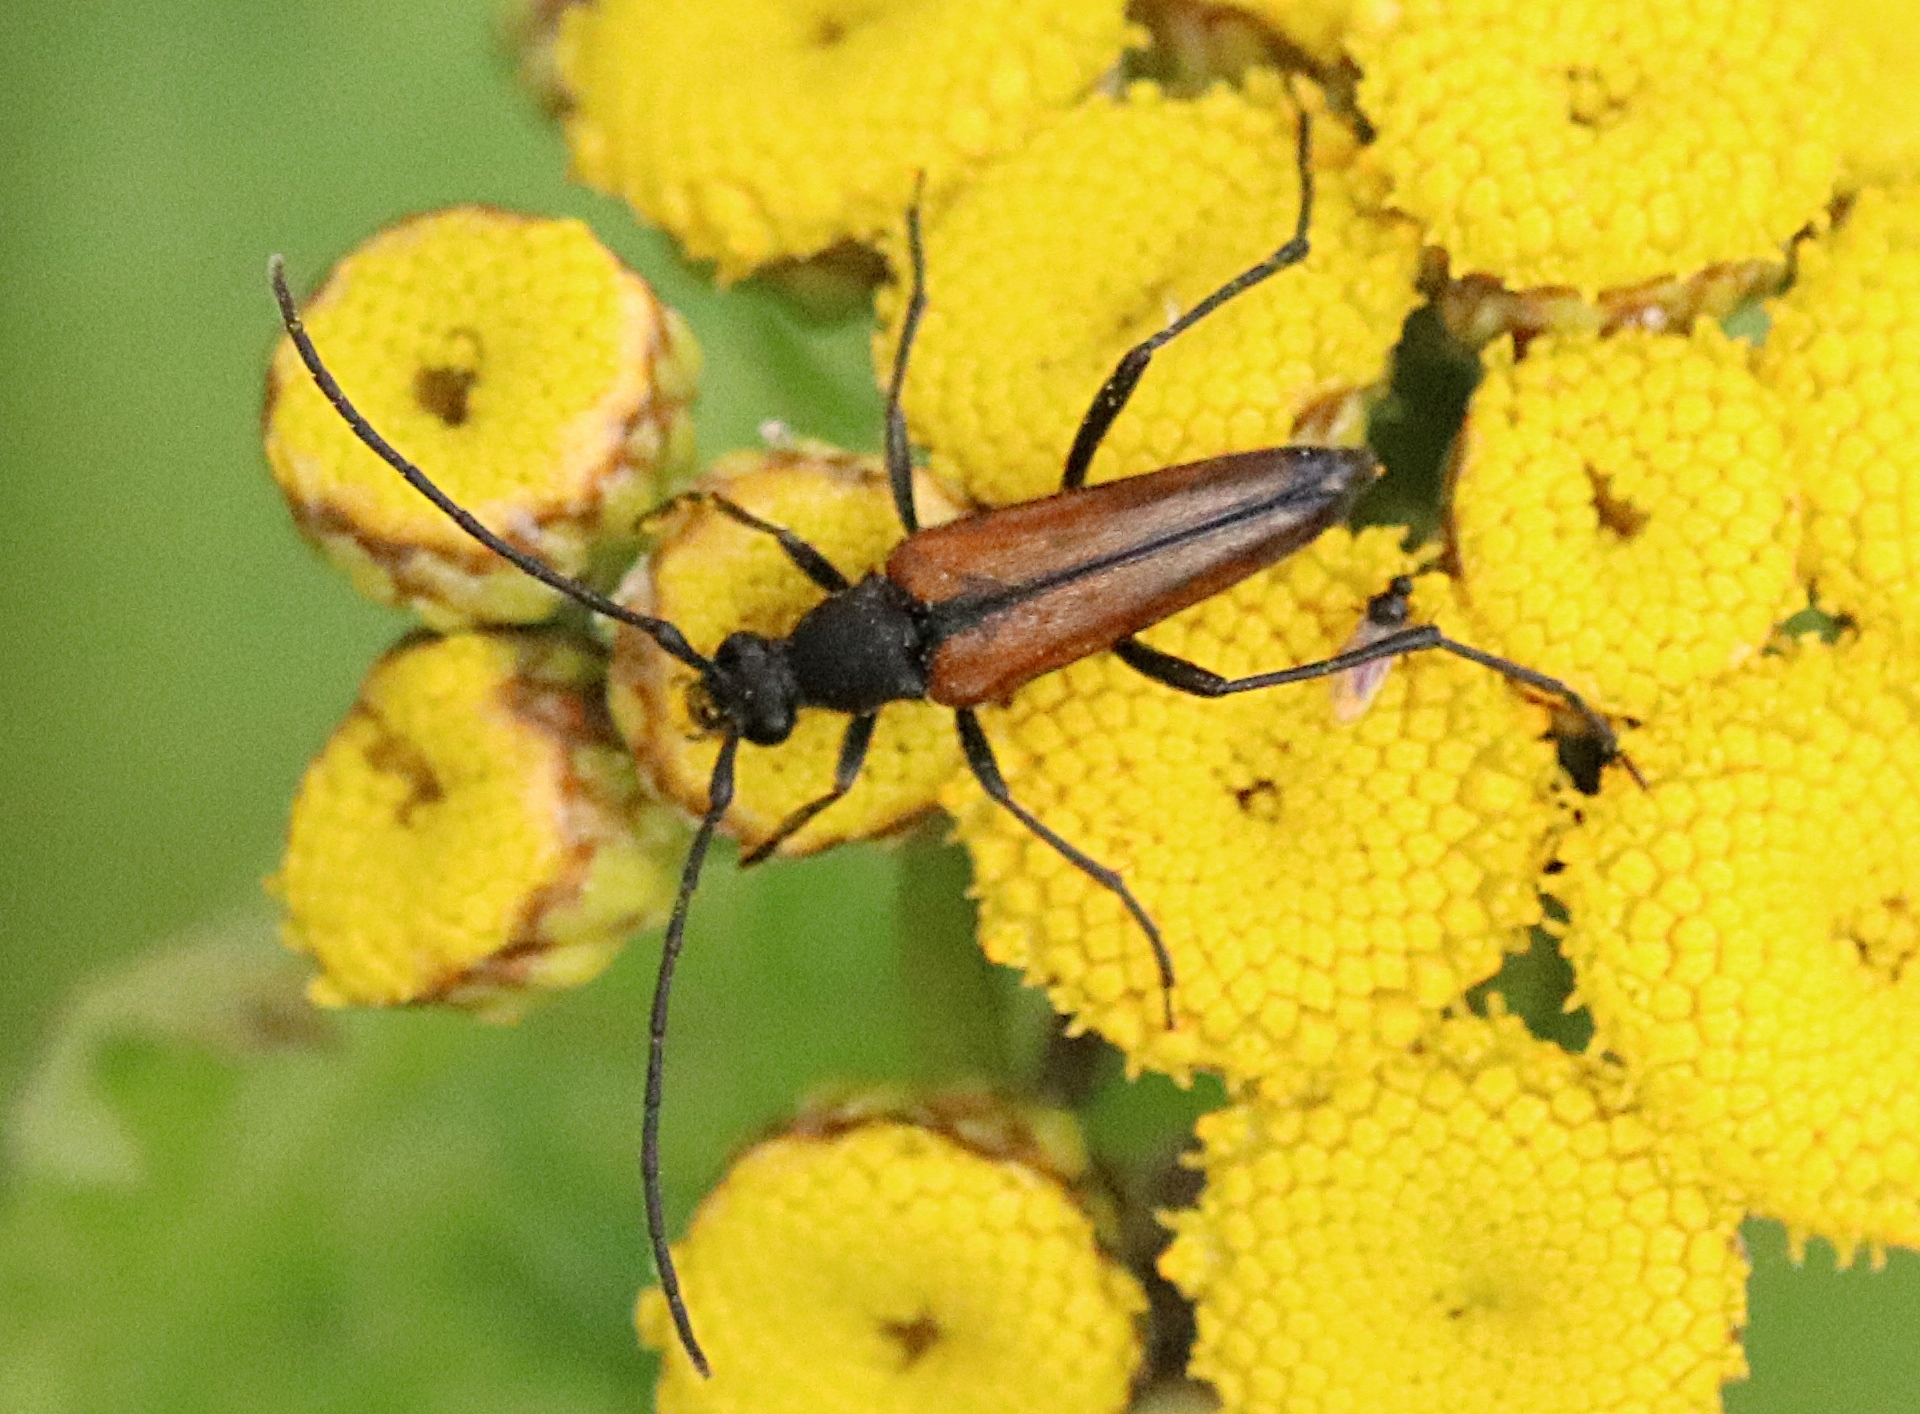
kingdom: Animalia
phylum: Arthropoda
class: Insecta
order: Coleoptera
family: Cerambycidae
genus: Stenurella
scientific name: Stenurella melanura
